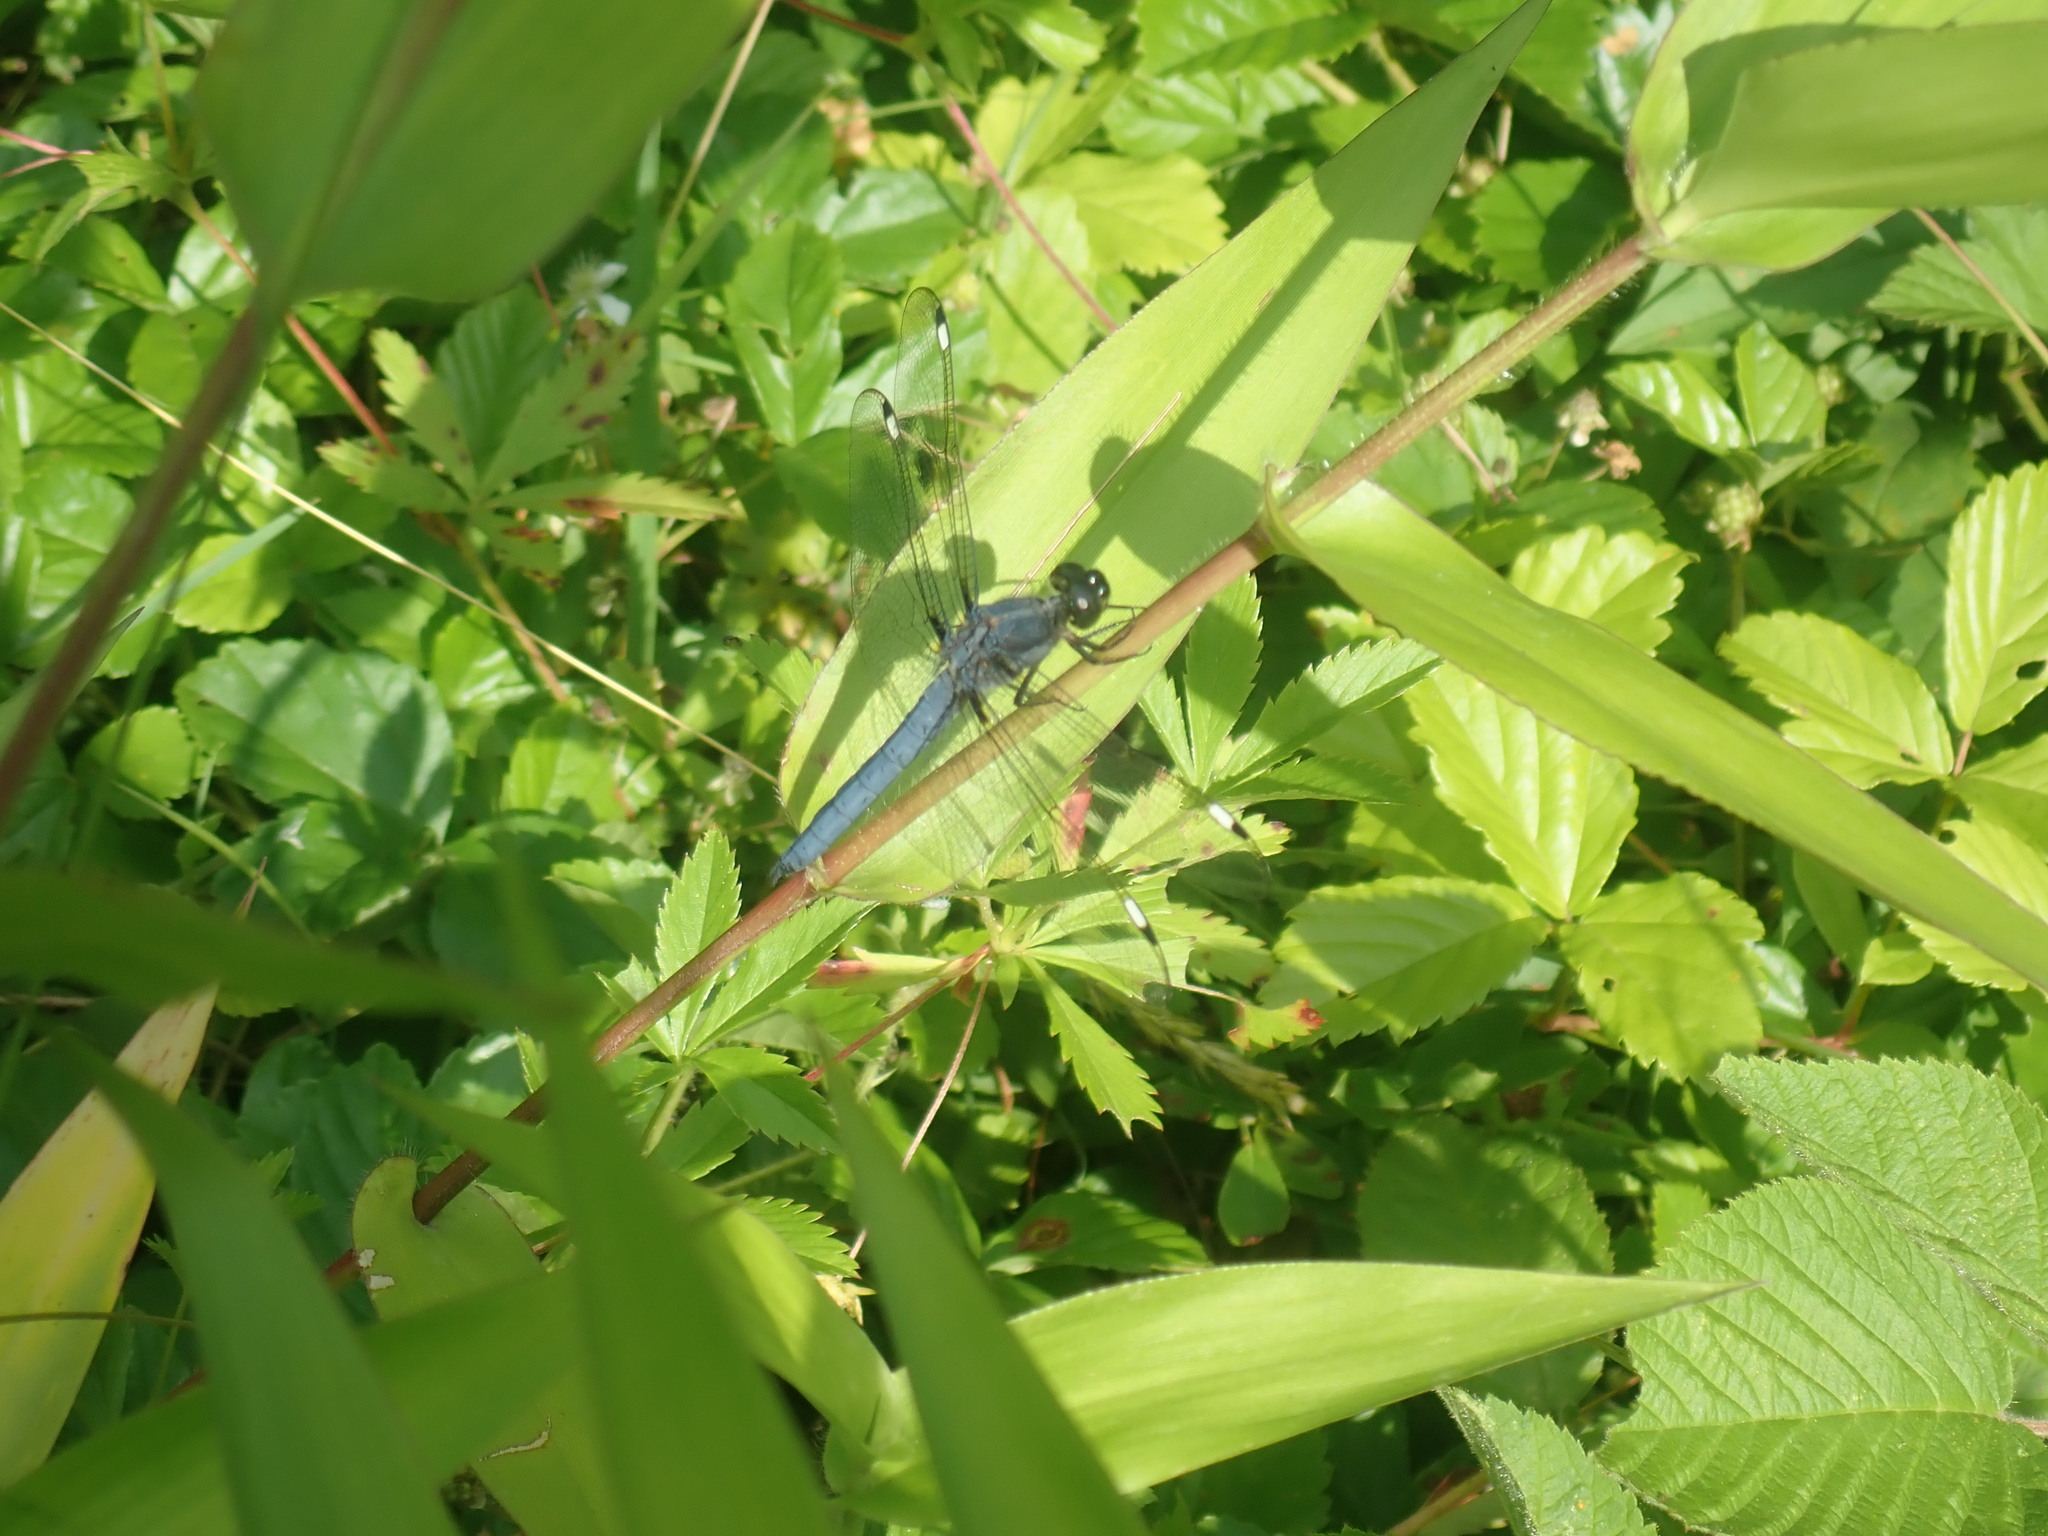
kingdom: Animalia
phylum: Arthropoda
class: Insecta
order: Odonata
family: Libellulidae
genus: Libellula
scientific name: Libellula cyanea
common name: Spangled skimmer
